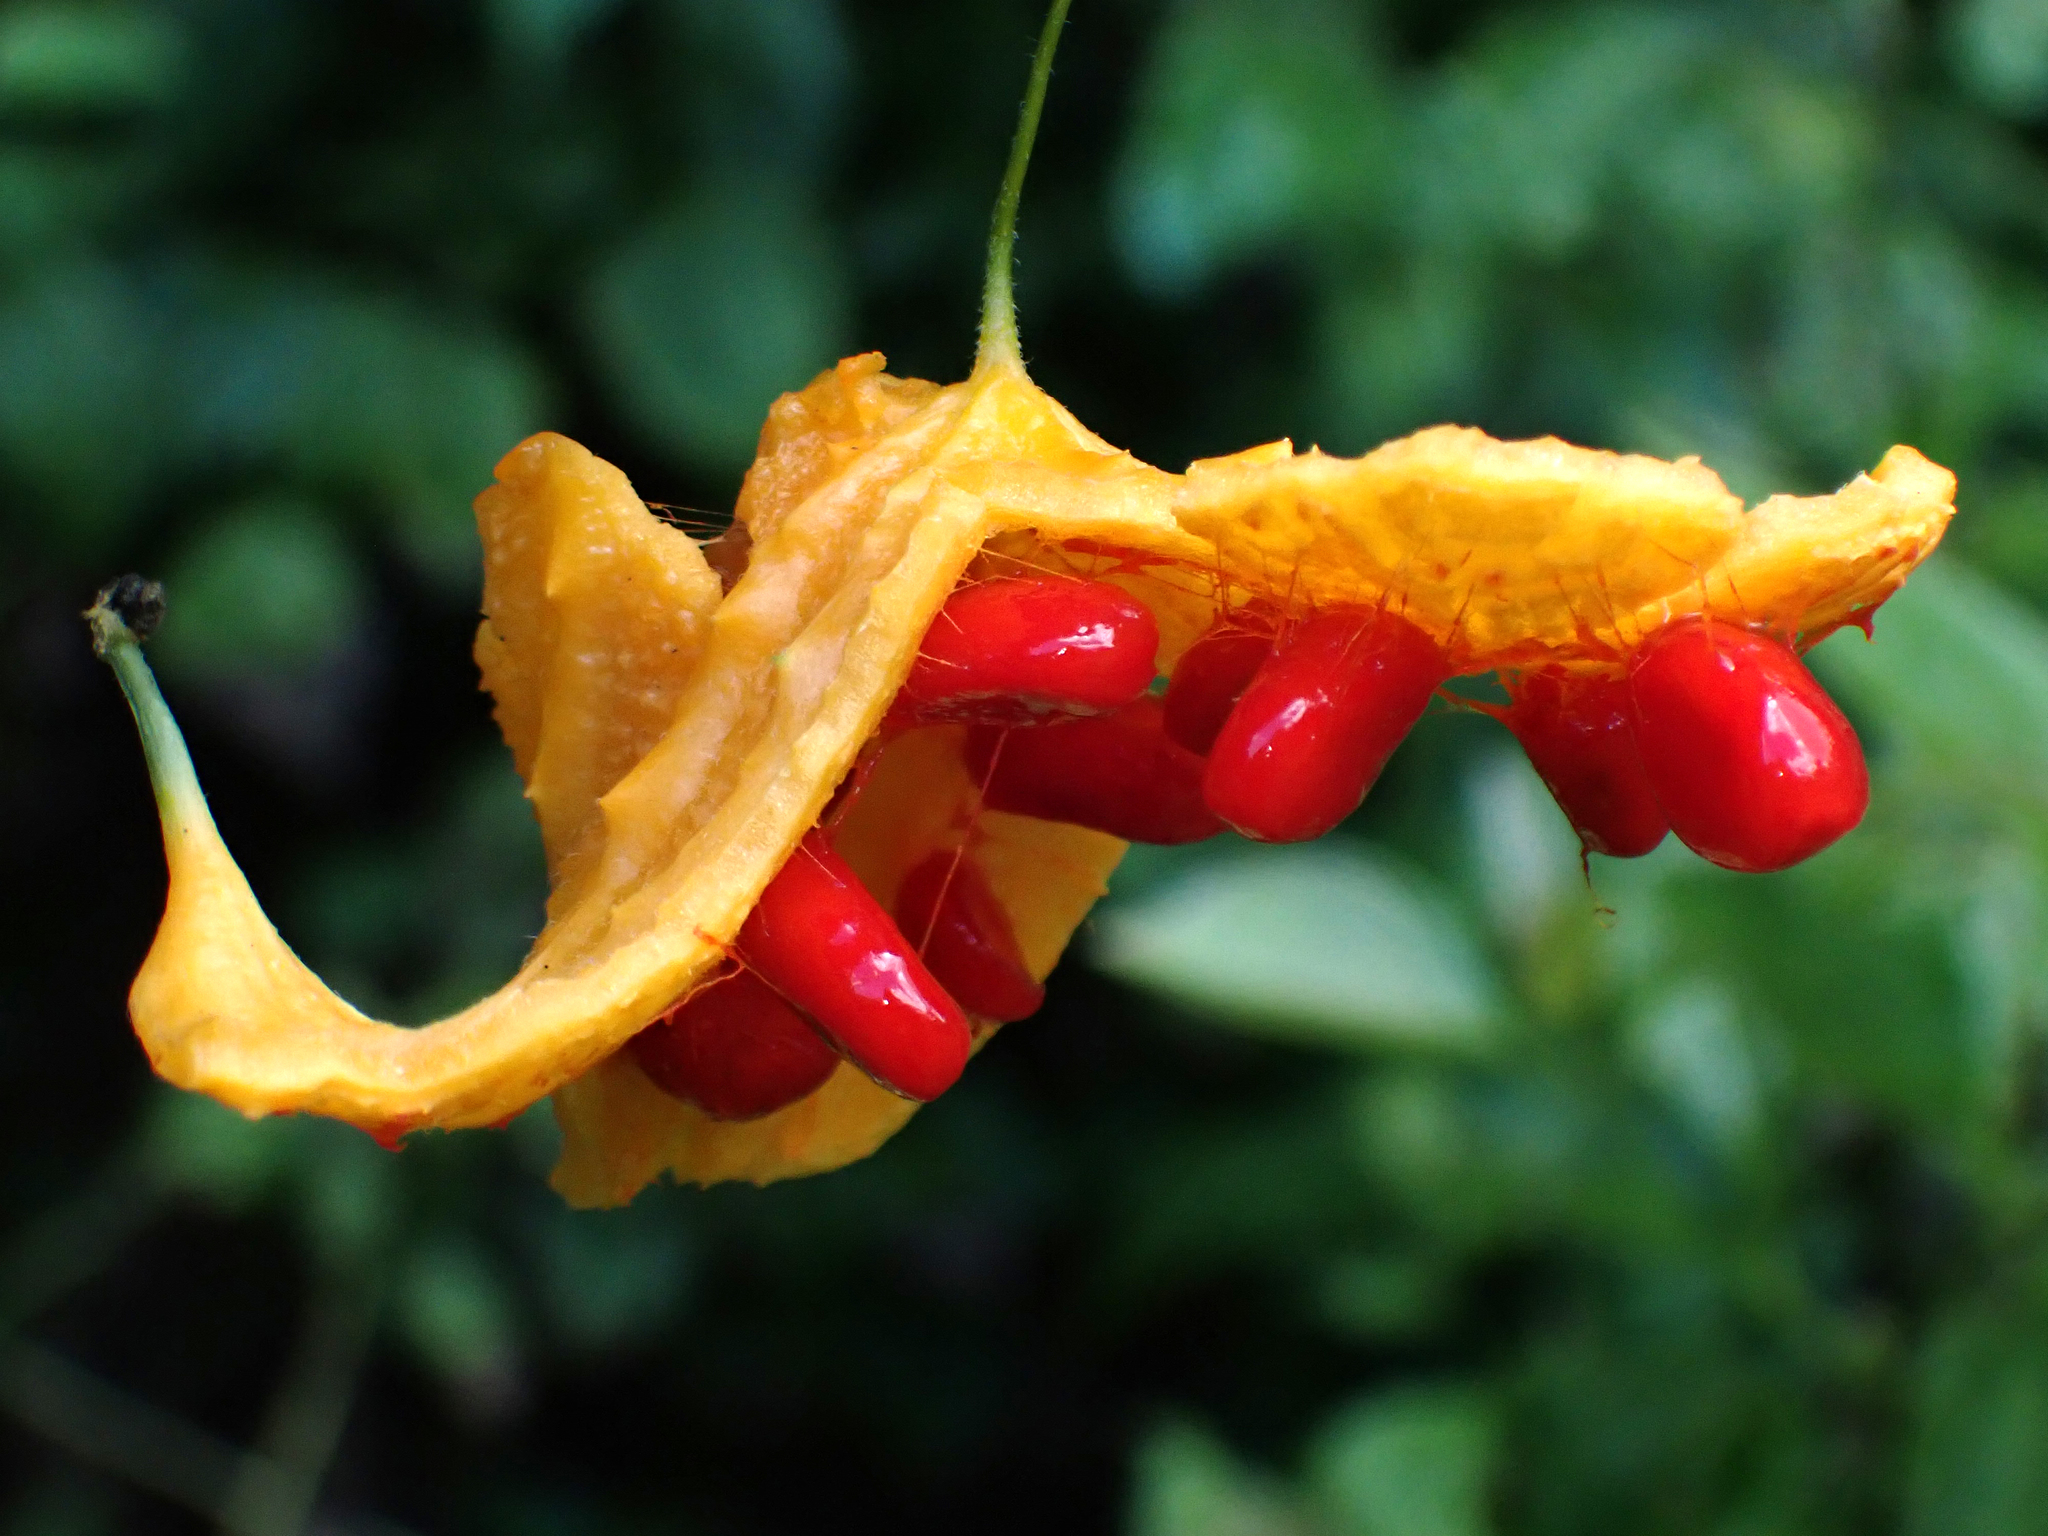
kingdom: Plantae
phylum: Tracheophyta
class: Magnoliopsida
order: Cucurbitales
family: Cucurbitaceae
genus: Momordica
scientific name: Momordica charantia
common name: Balsampear
